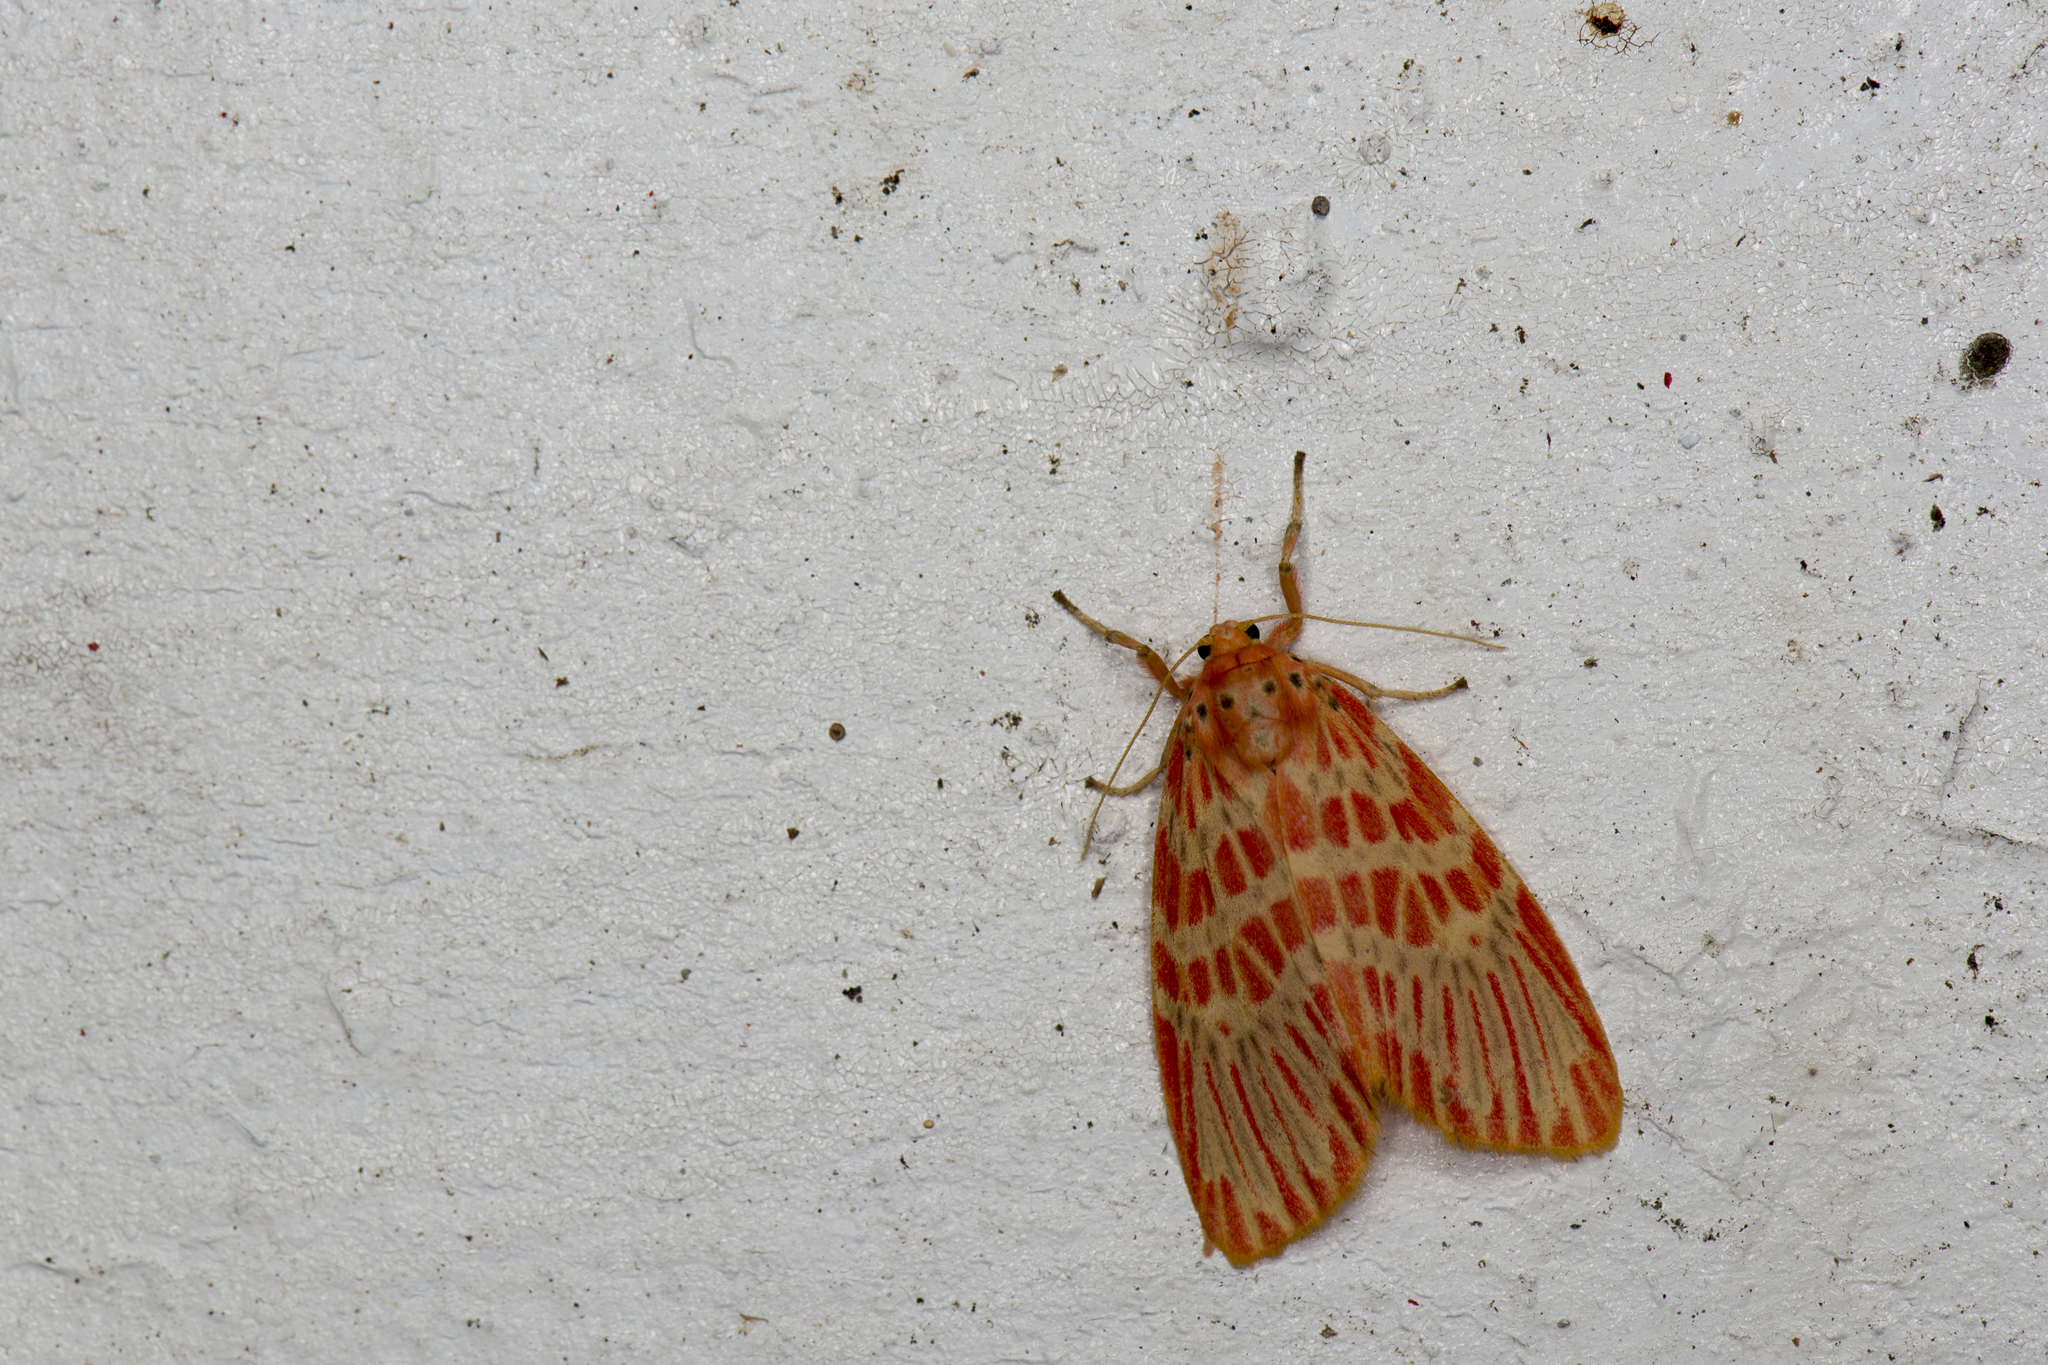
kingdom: Animalia
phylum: Arthropoda
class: Insecta
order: Lepidoptera
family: Erebidae
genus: Barsine
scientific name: Barsine sauteri
